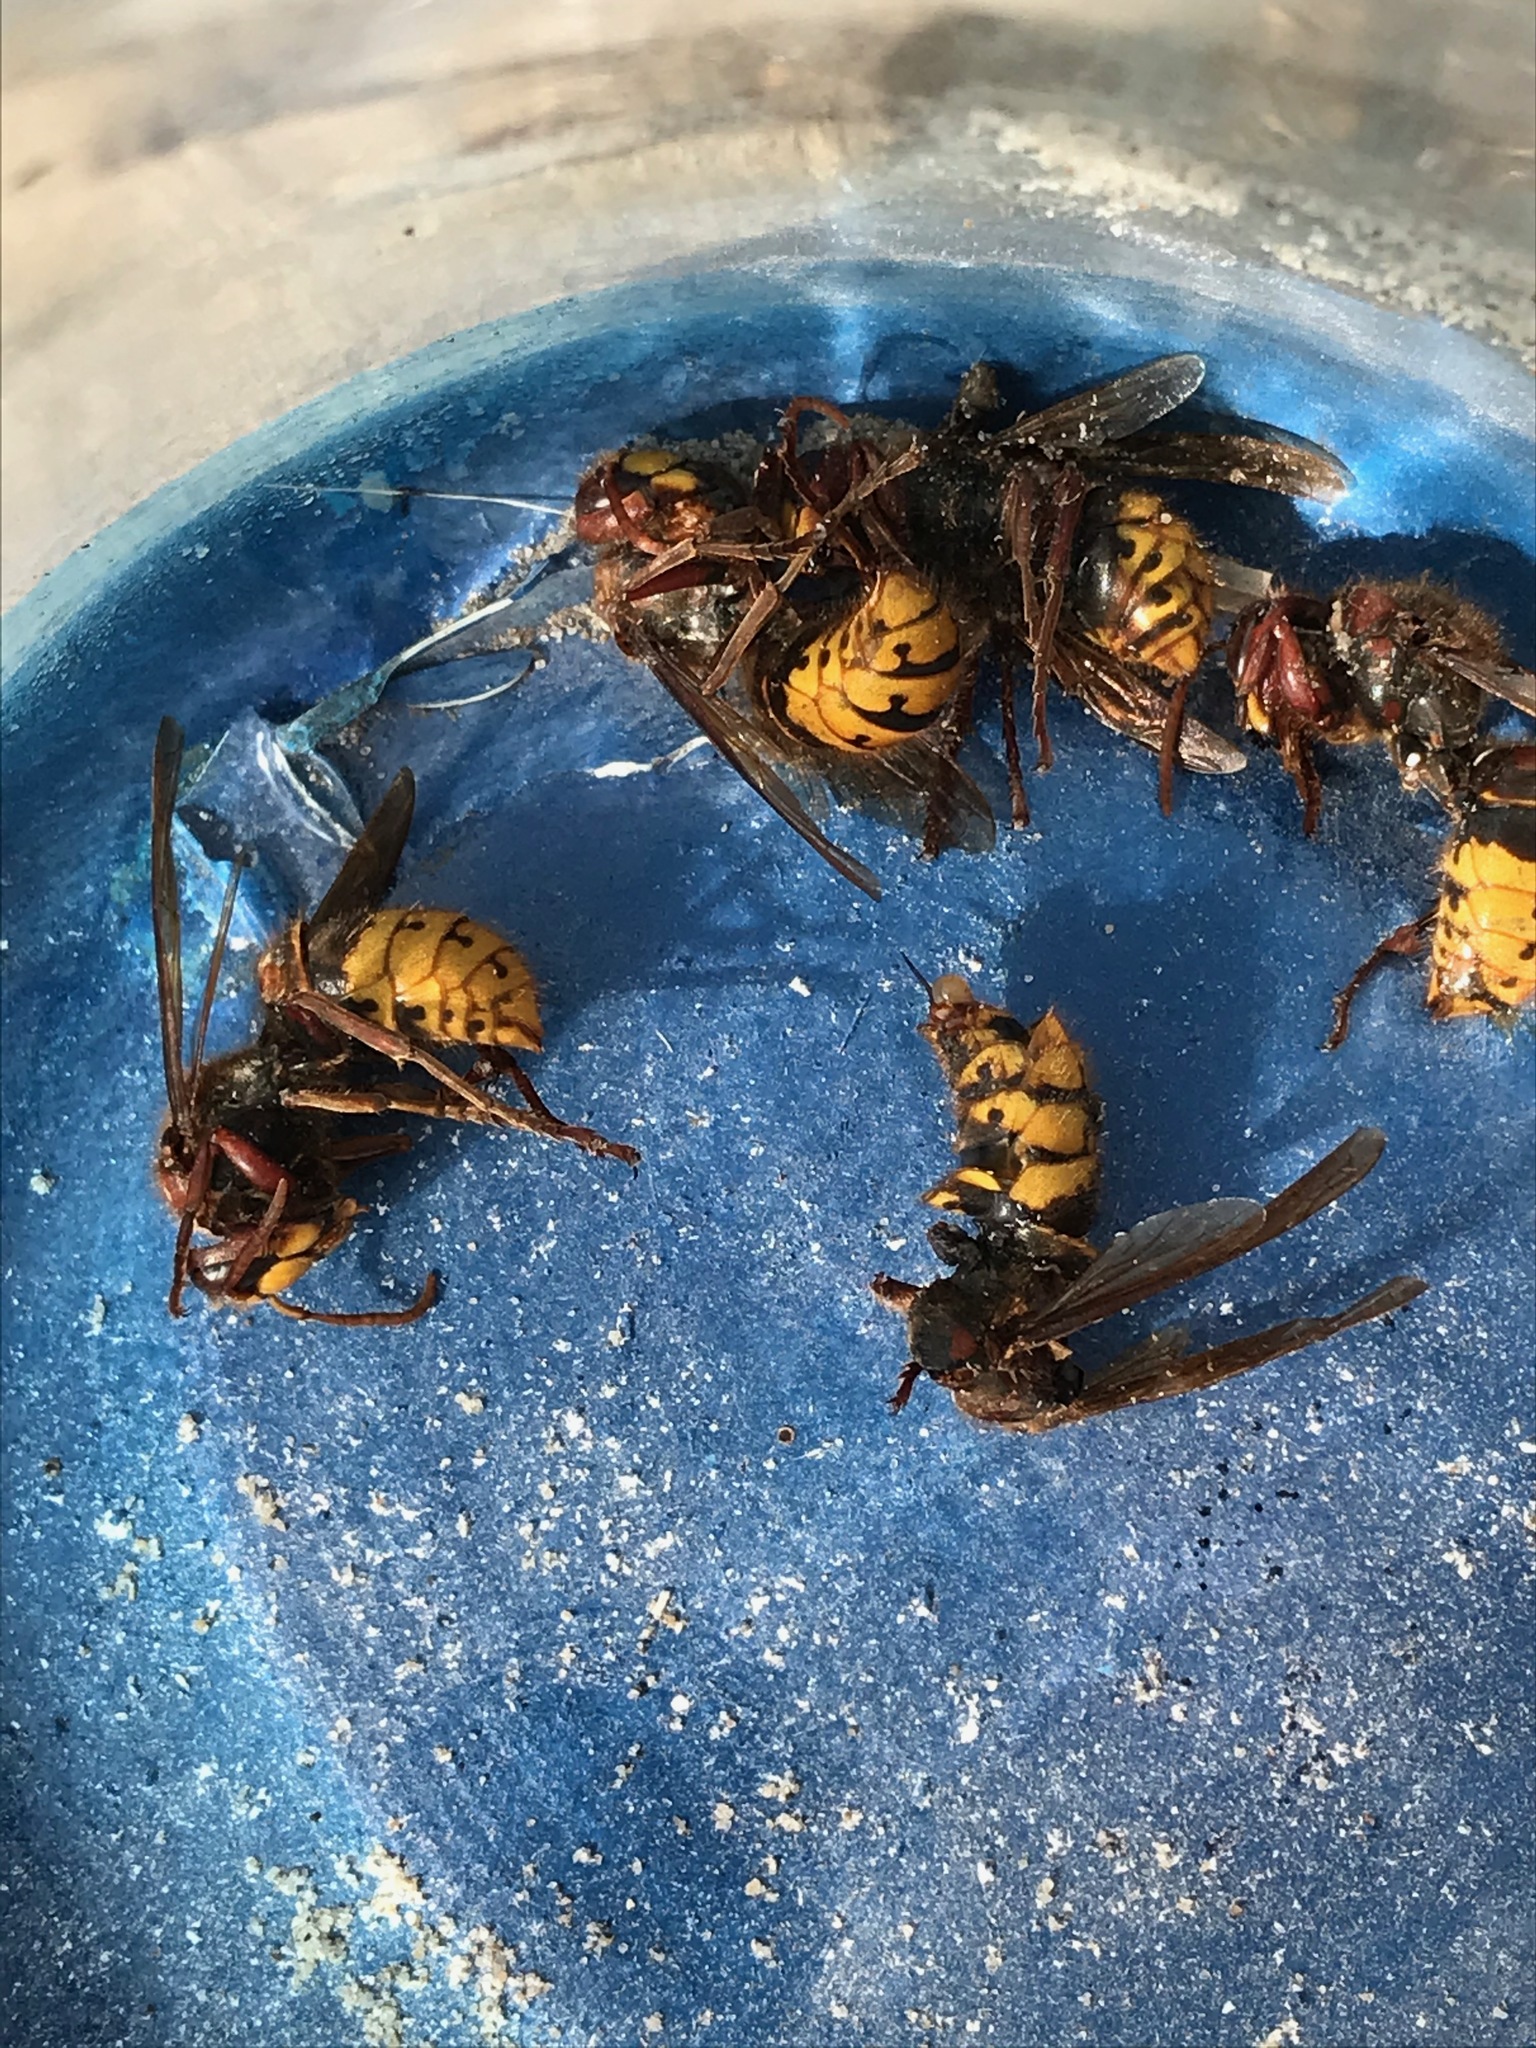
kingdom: Animalia
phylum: Arthropoda
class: Insecta
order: Hymenoptera
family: Vespidae
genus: Vespa
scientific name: Vespa crabro
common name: Hornet
